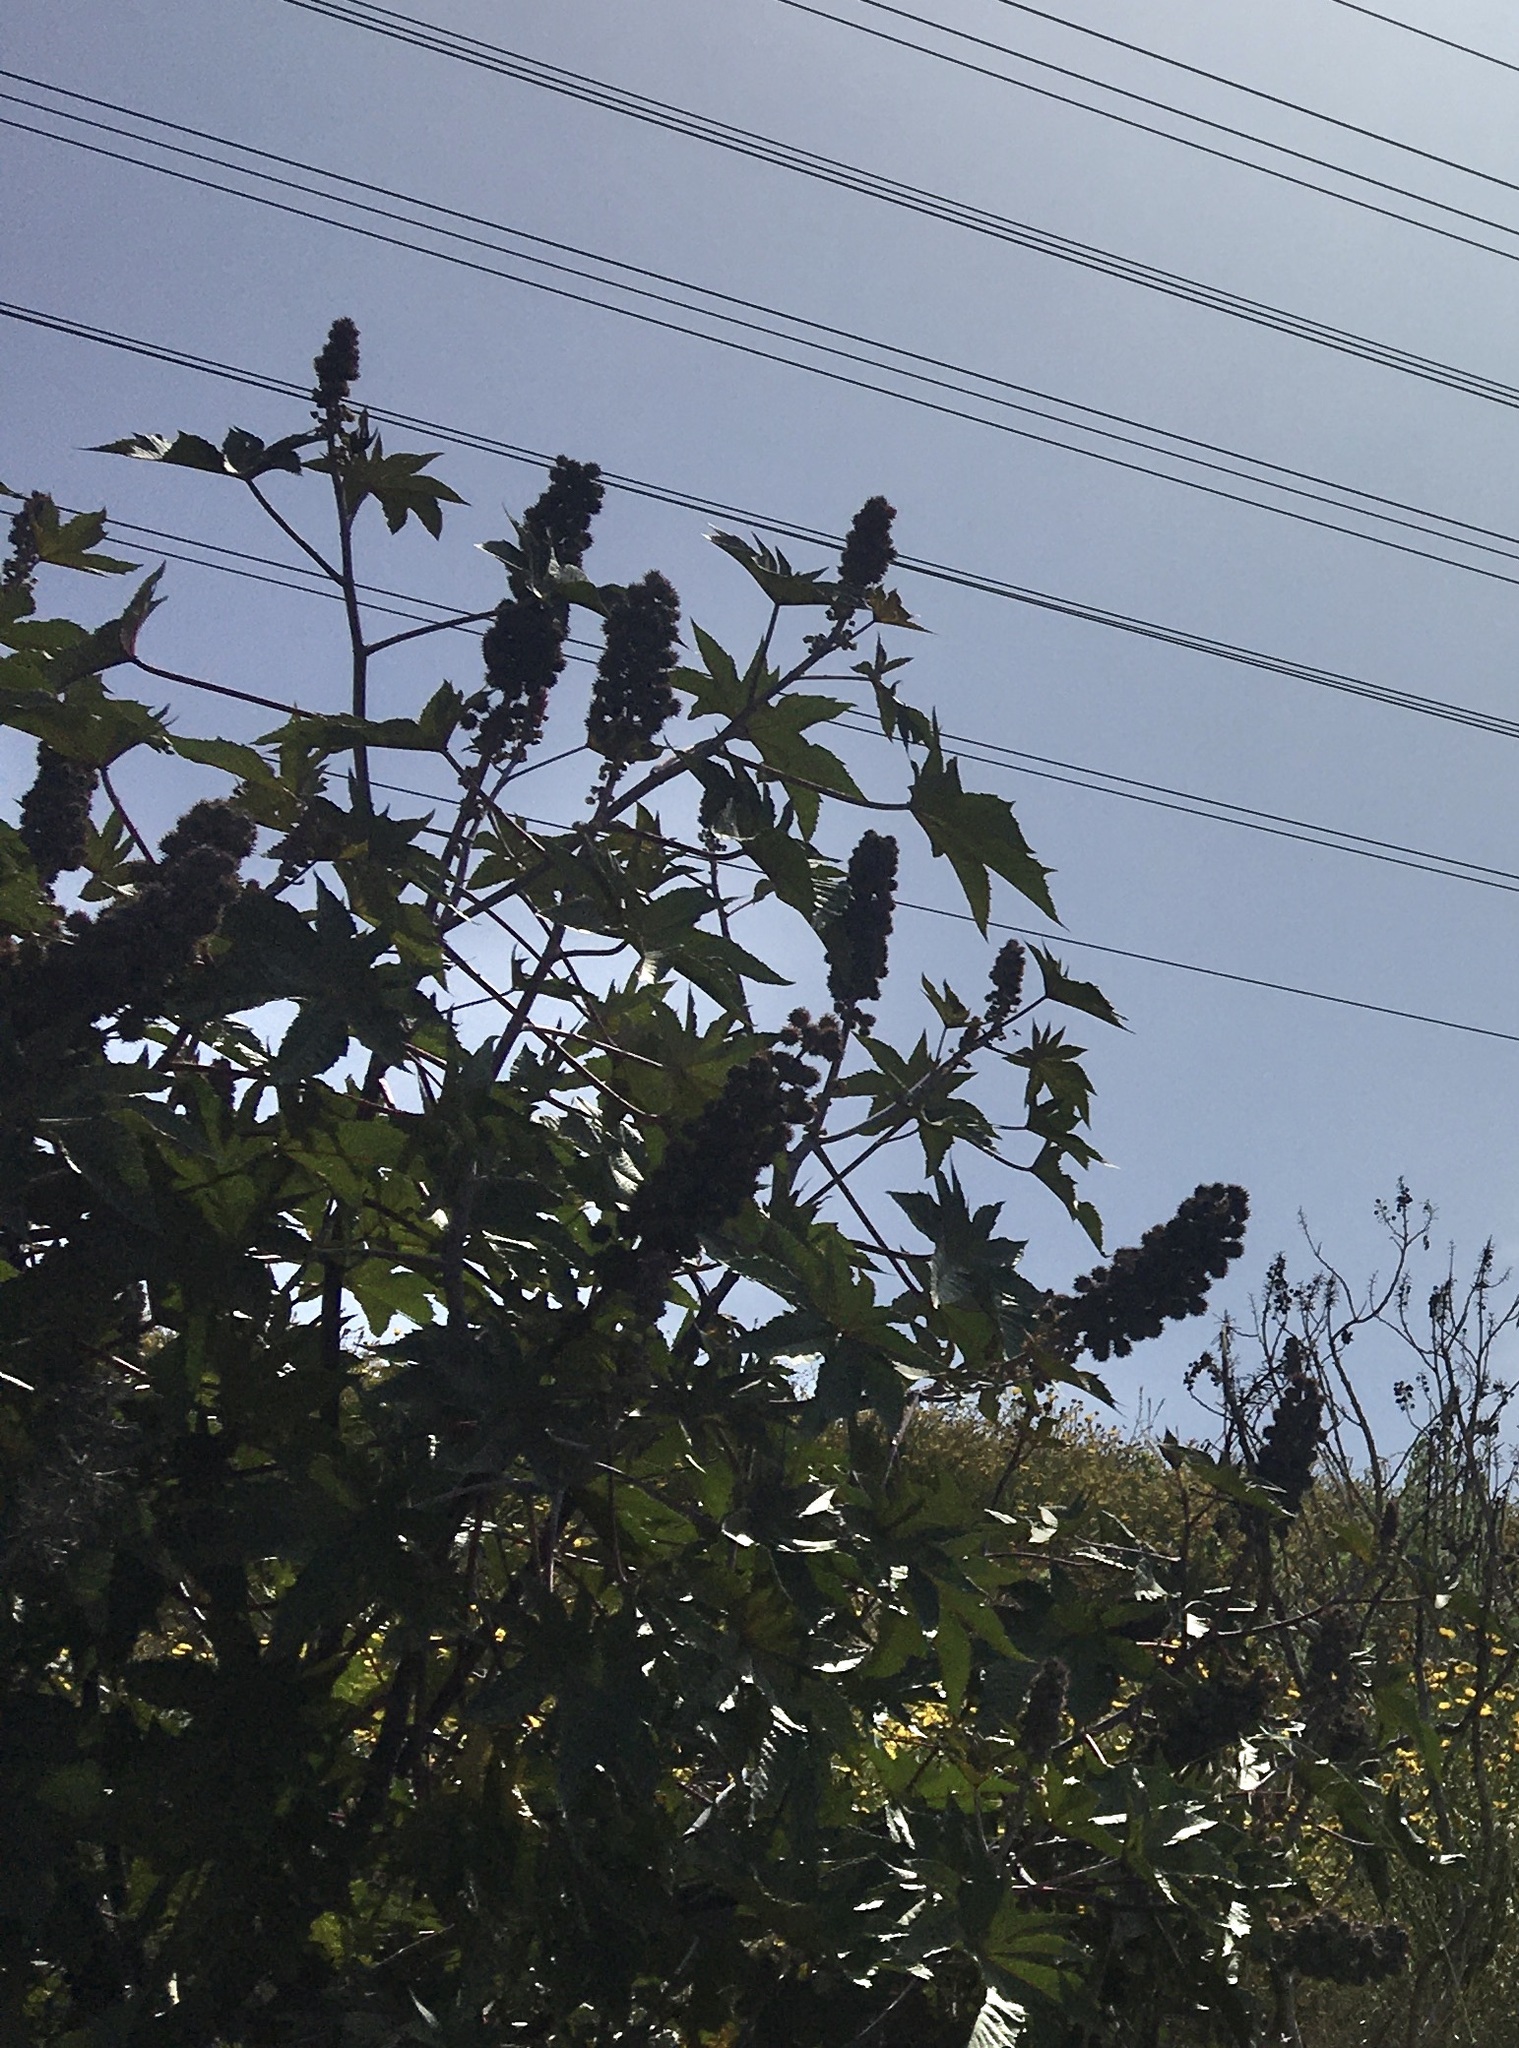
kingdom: Plantae
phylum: Tracheophyta
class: Magnoliopsida
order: Malpighiales
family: Euphorbiaceae
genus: Ricinus
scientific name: Ricinus communis
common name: Castor-oil-plant
